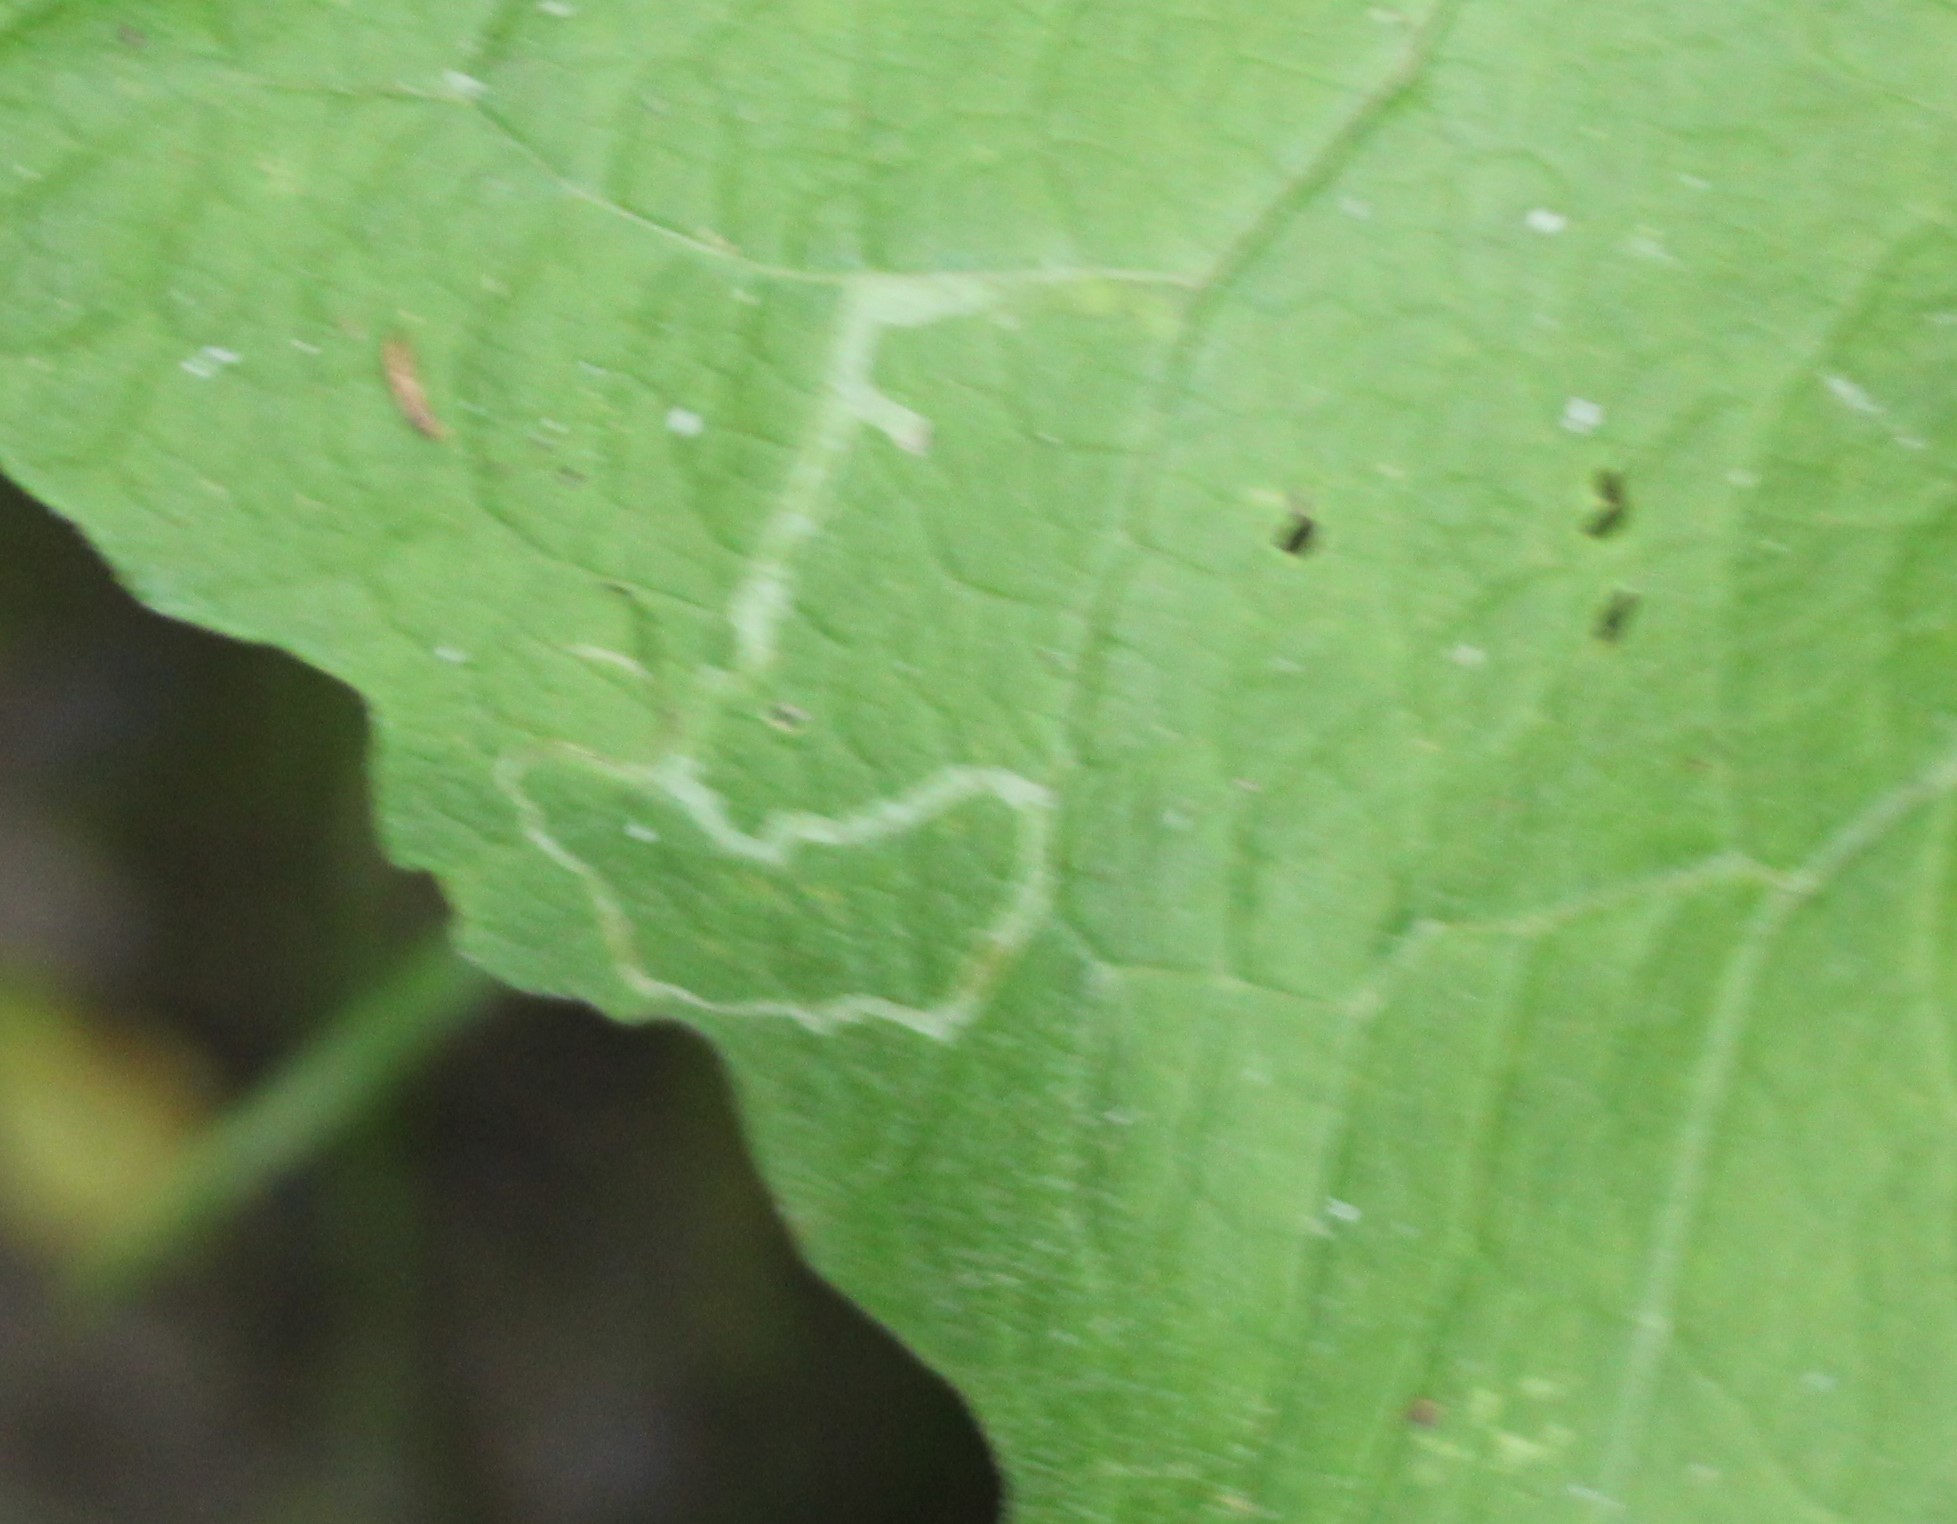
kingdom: Animalia
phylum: Arthropoda
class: Insecta
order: Diptera
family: Agromyzidae
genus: Liriomyza
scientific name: Liriomyza arctii
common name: Burdock leafminer
